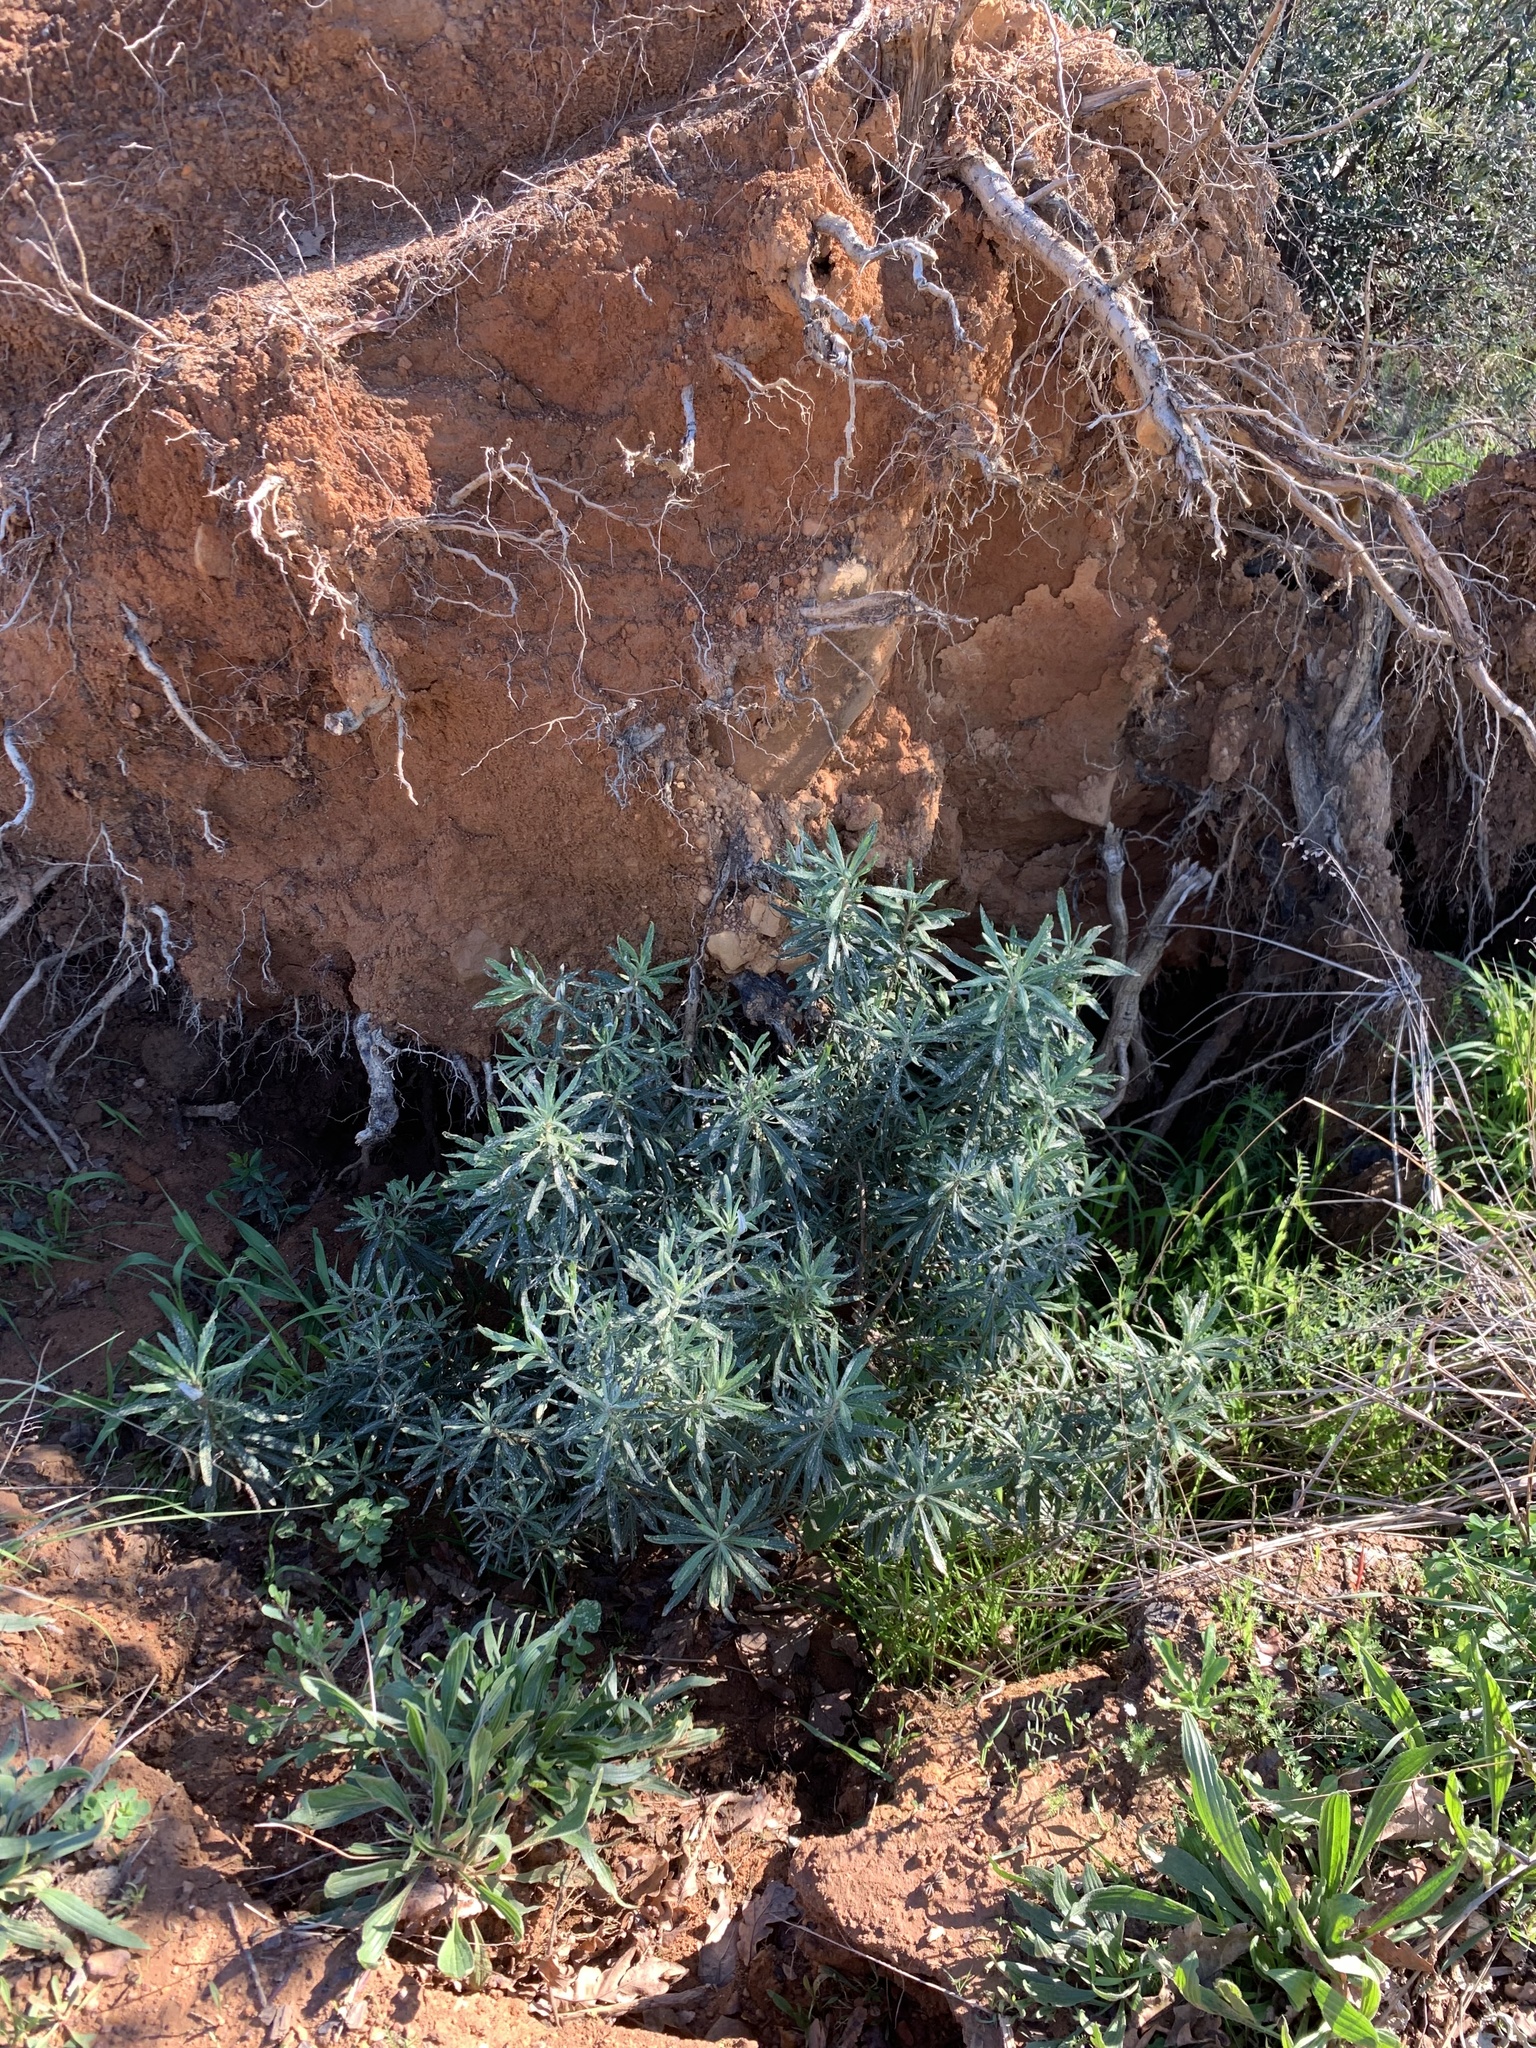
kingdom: Plantae
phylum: Tracheophyta
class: Magnoliopsida
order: Asterales
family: Asteraceae
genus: Senecio
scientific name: Senecio pterophorus
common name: Shoddy ragwort
